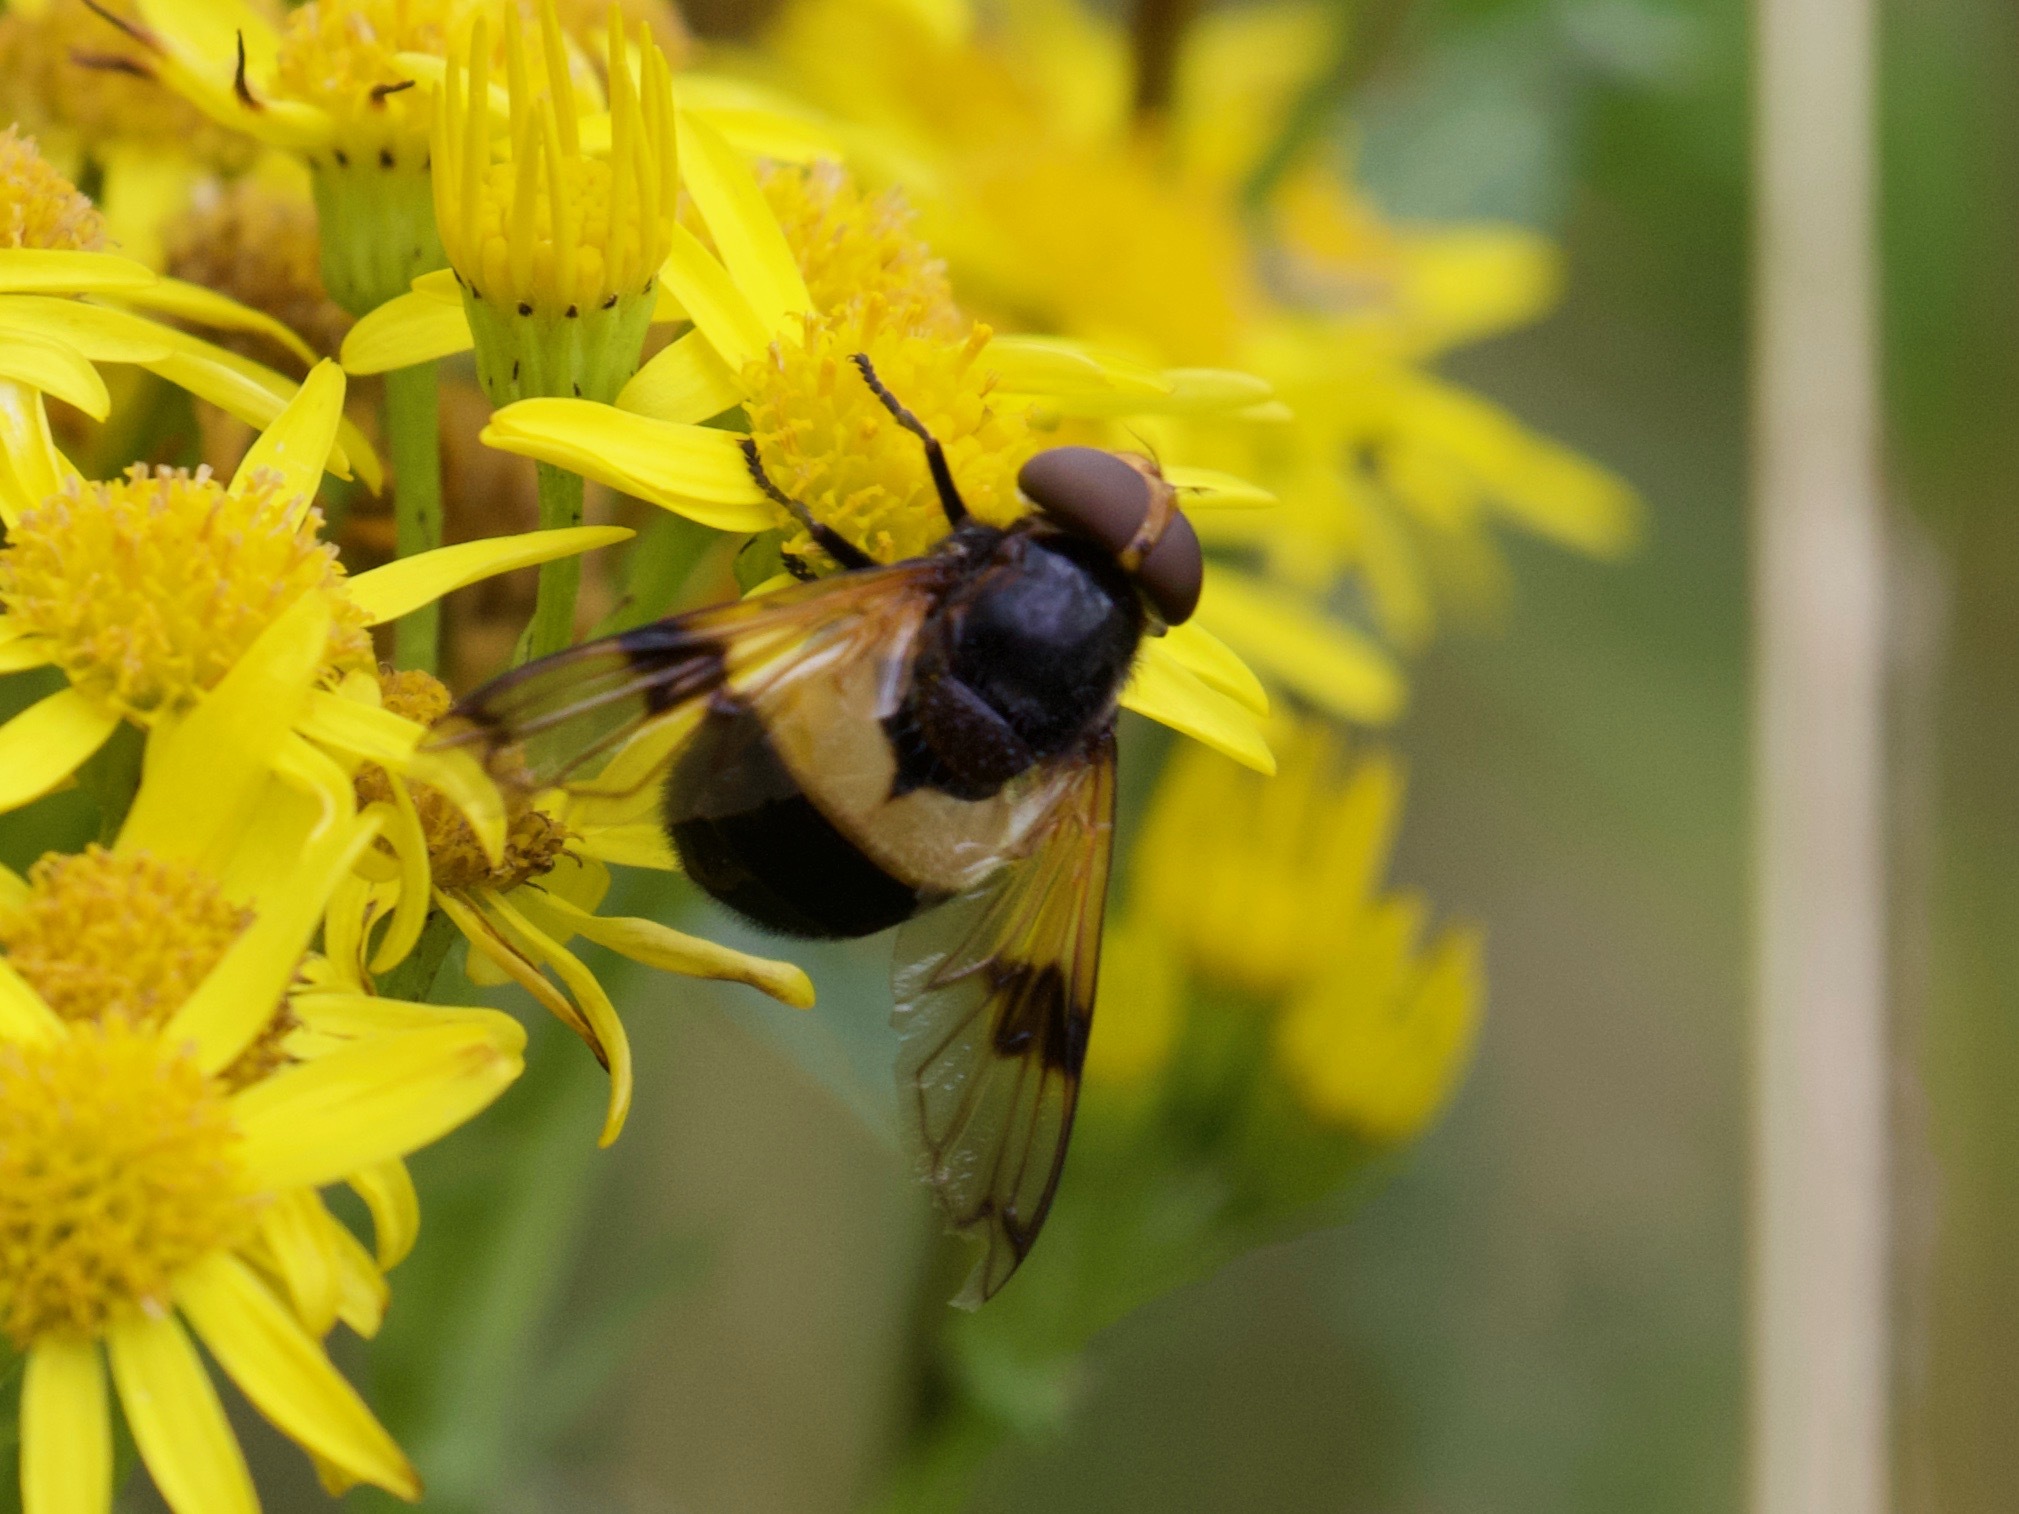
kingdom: Animalia
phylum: Arthropoda
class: Insecta
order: Diptera
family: Syrphidae
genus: Volucella
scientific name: Volucella pellucens
